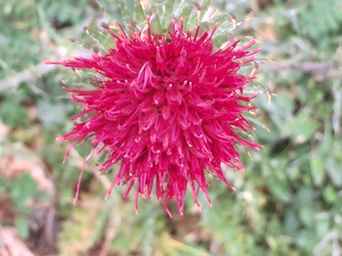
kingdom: Plantae
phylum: Tracheophyta
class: Magnoliopsida
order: Asterales
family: Asteraceae
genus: Cirsium
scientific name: Cirsium occidentale
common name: Western thistle
